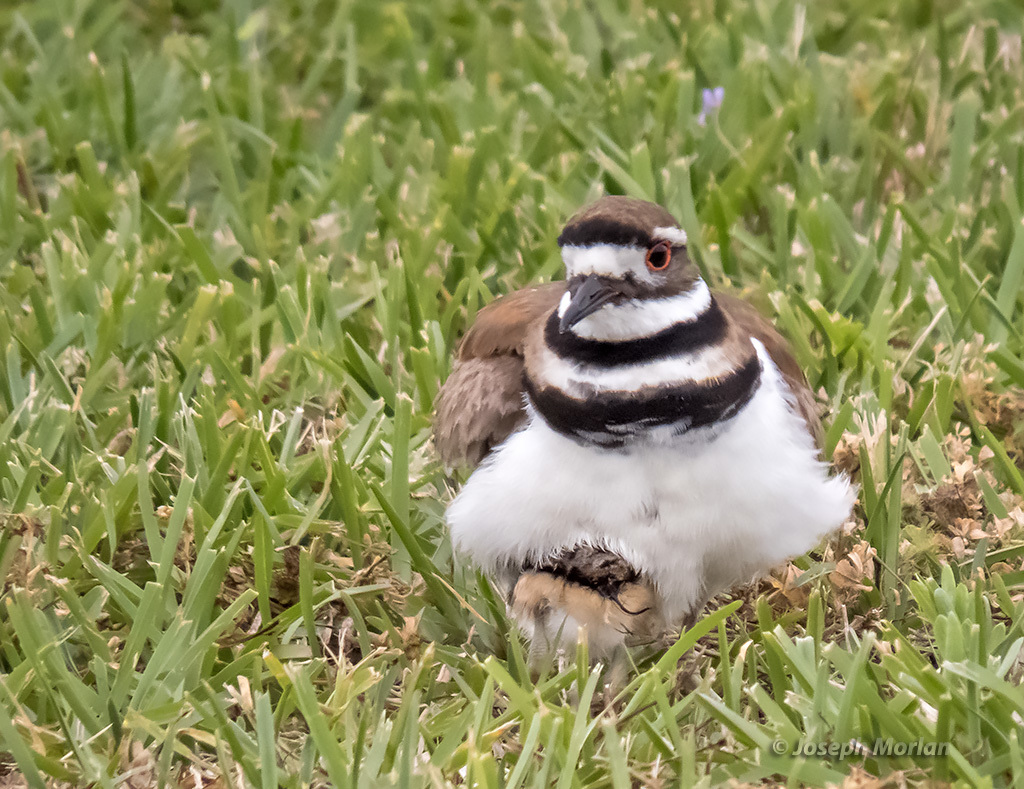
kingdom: Animalia
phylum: Chordata
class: Aves
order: Charadriiformes
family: Charadriidae
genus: Charadrius
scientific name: Charadrius vociferus
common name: Killdeer
